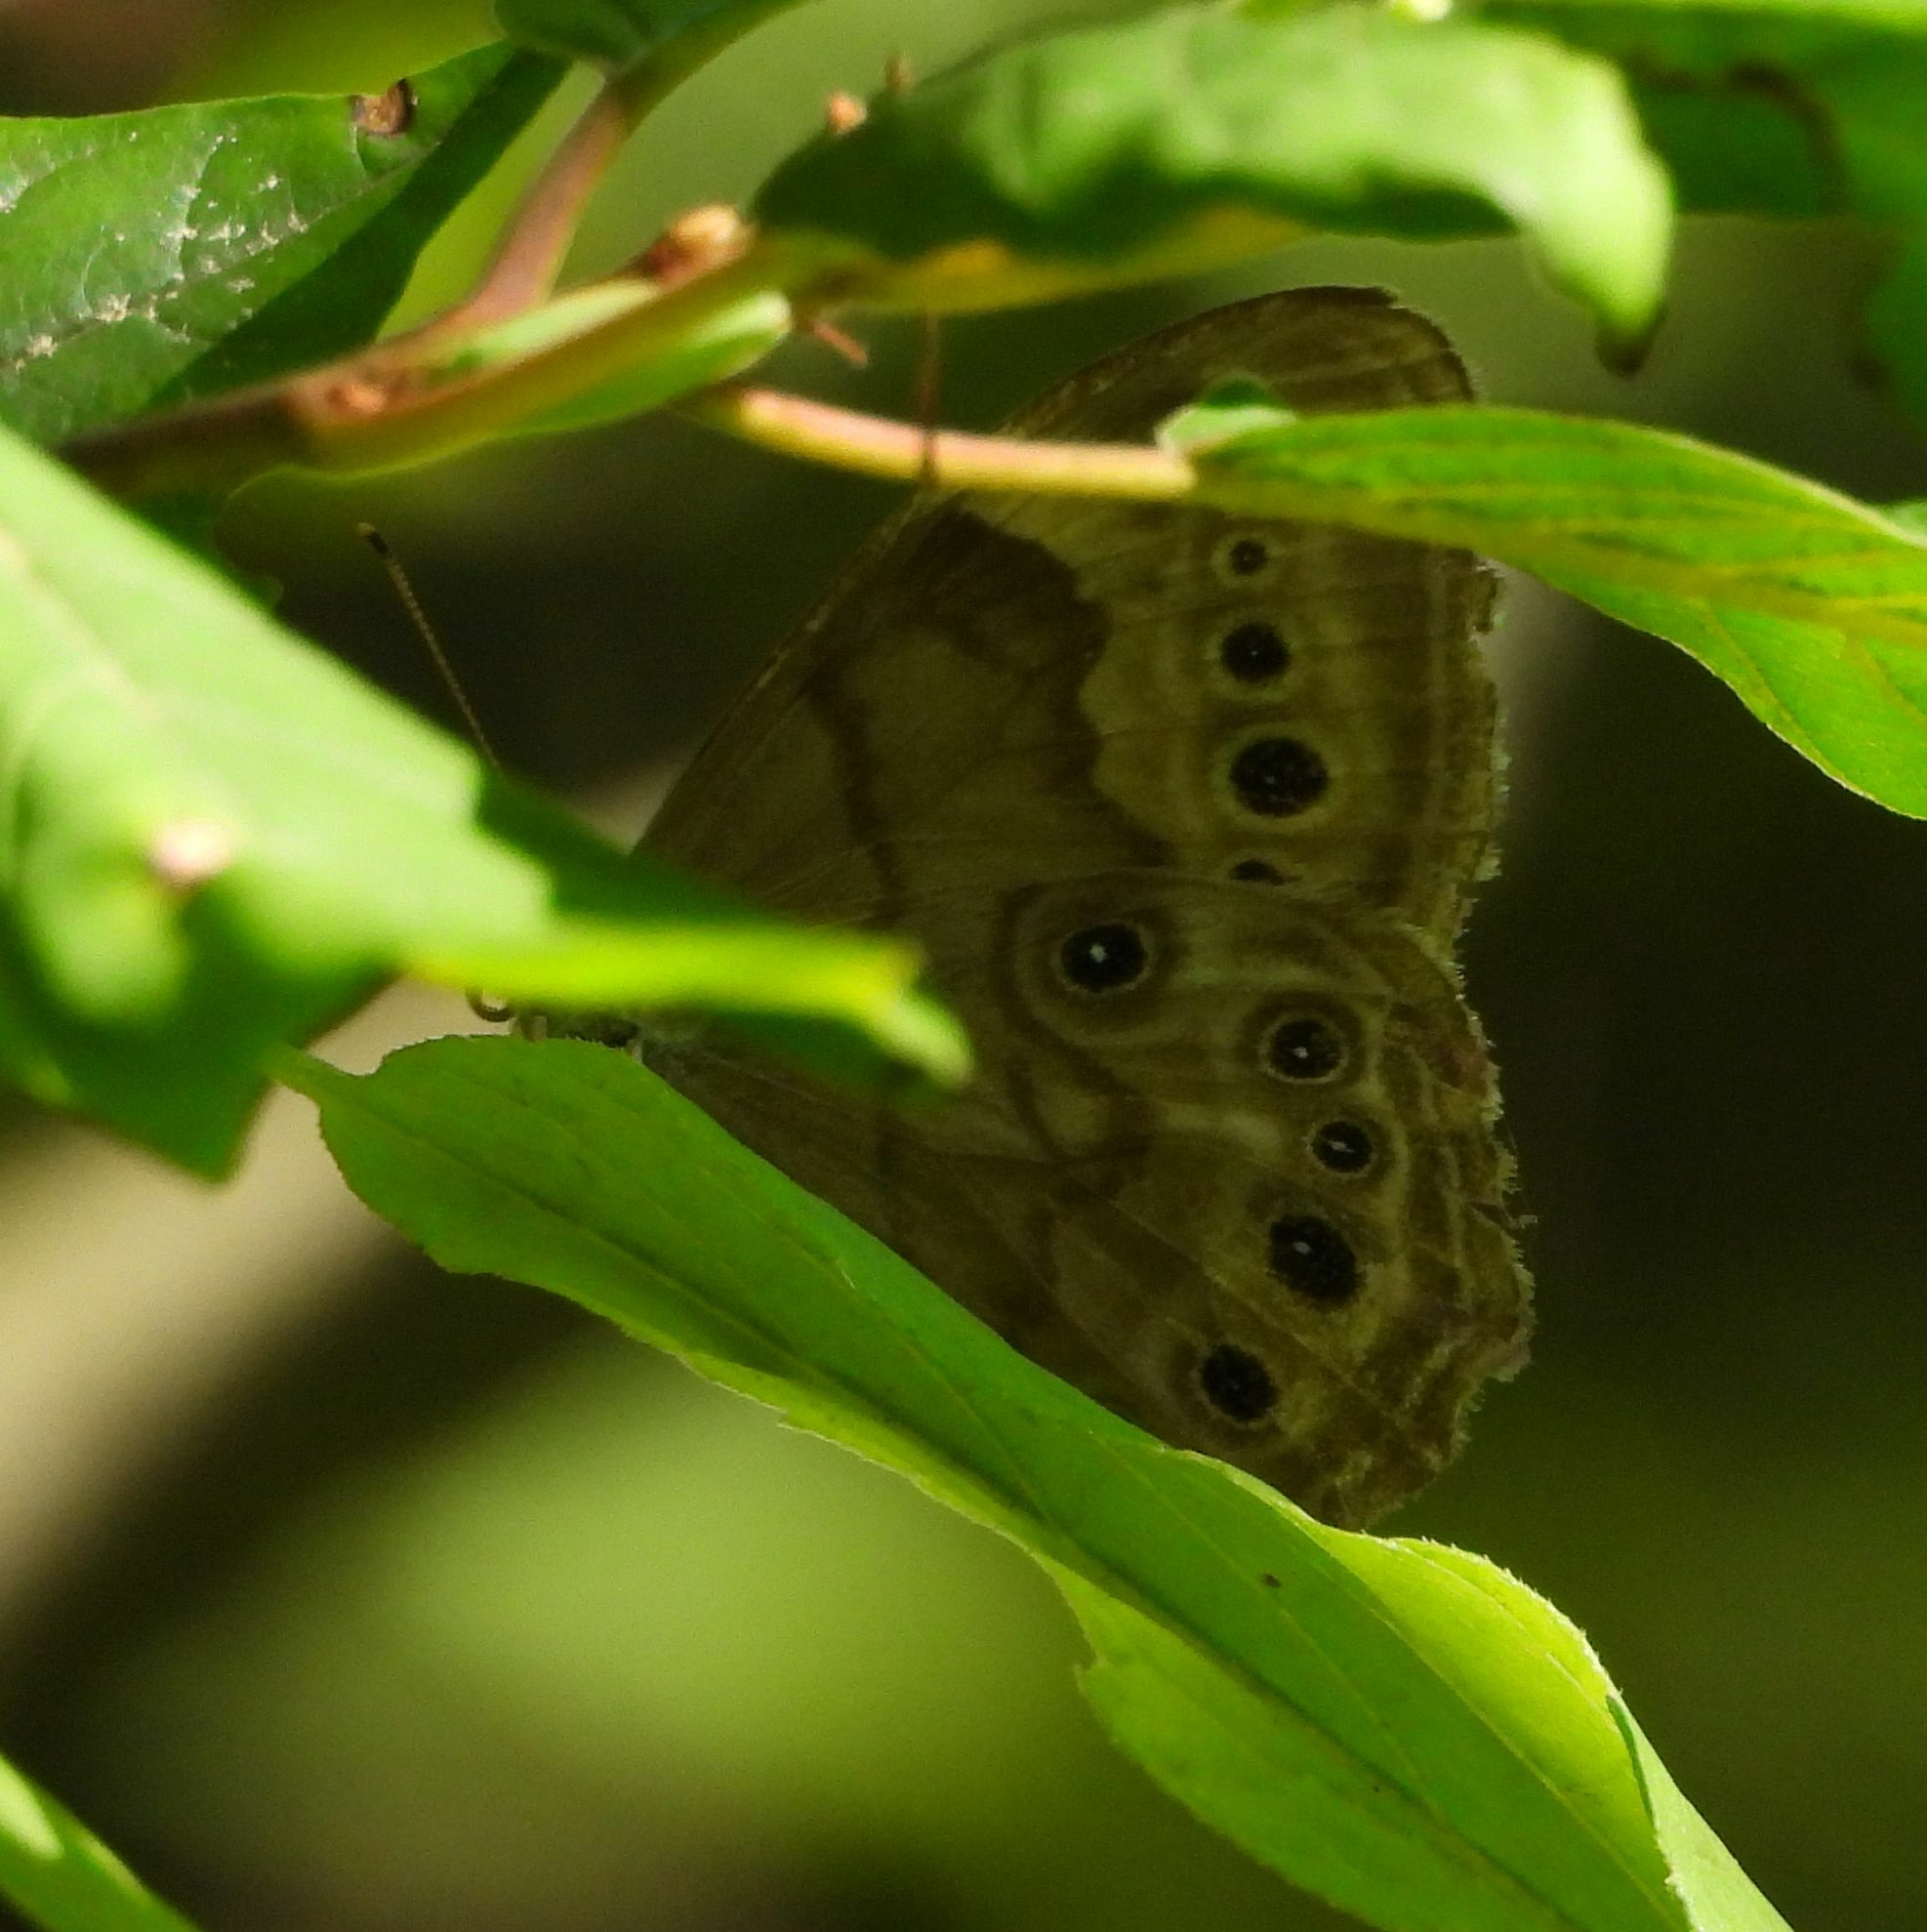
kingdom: Animalia
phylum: Arthropoda
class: Insecta
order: Lepidoptera
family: Nymphalidae
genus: Lethe
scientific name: Lethe anthedon
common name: Northern pearly-eye
